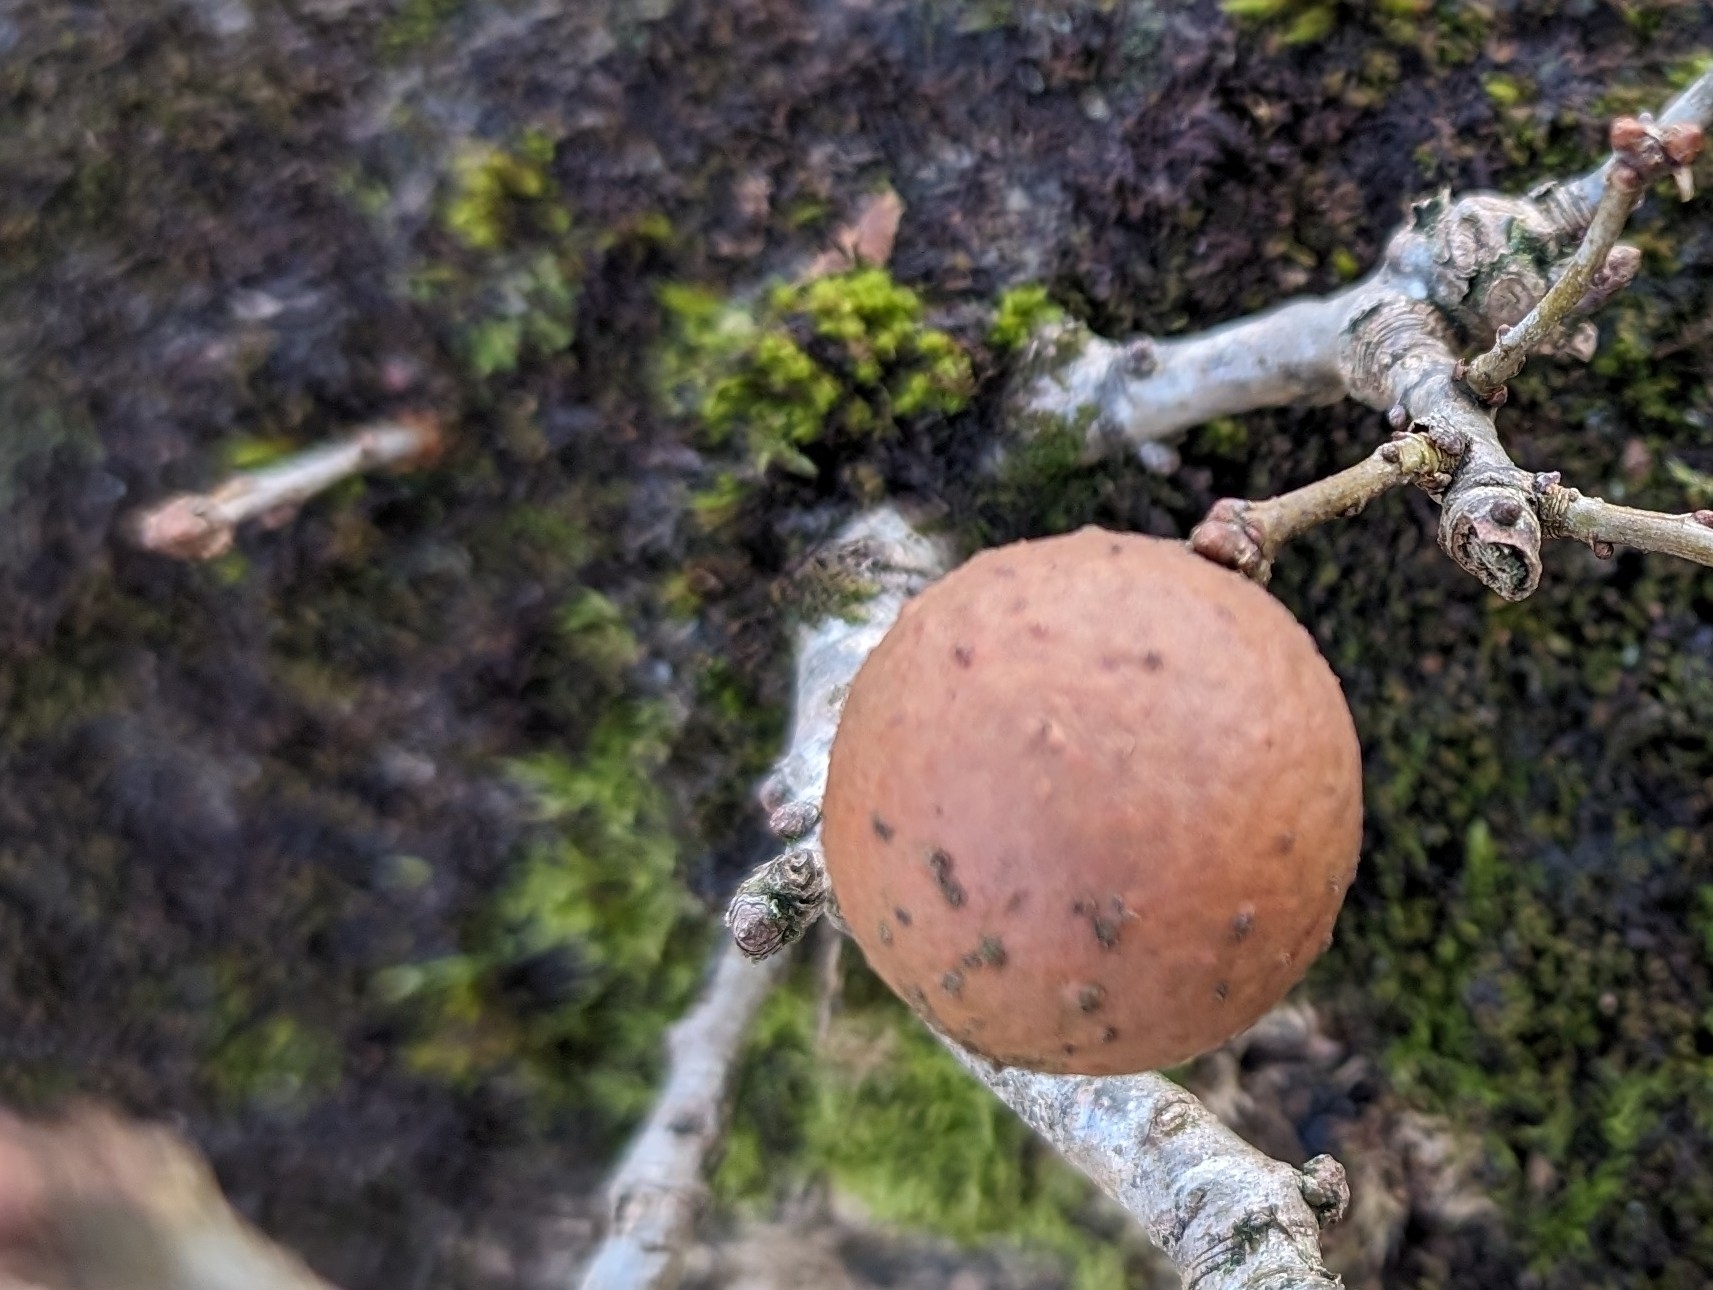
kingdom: Animalia
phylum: Arthropoda
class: Insecta
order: Hymenoptera
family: Cynipidae
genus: Andricus
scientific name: Andricus kollari
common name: Marble gall
